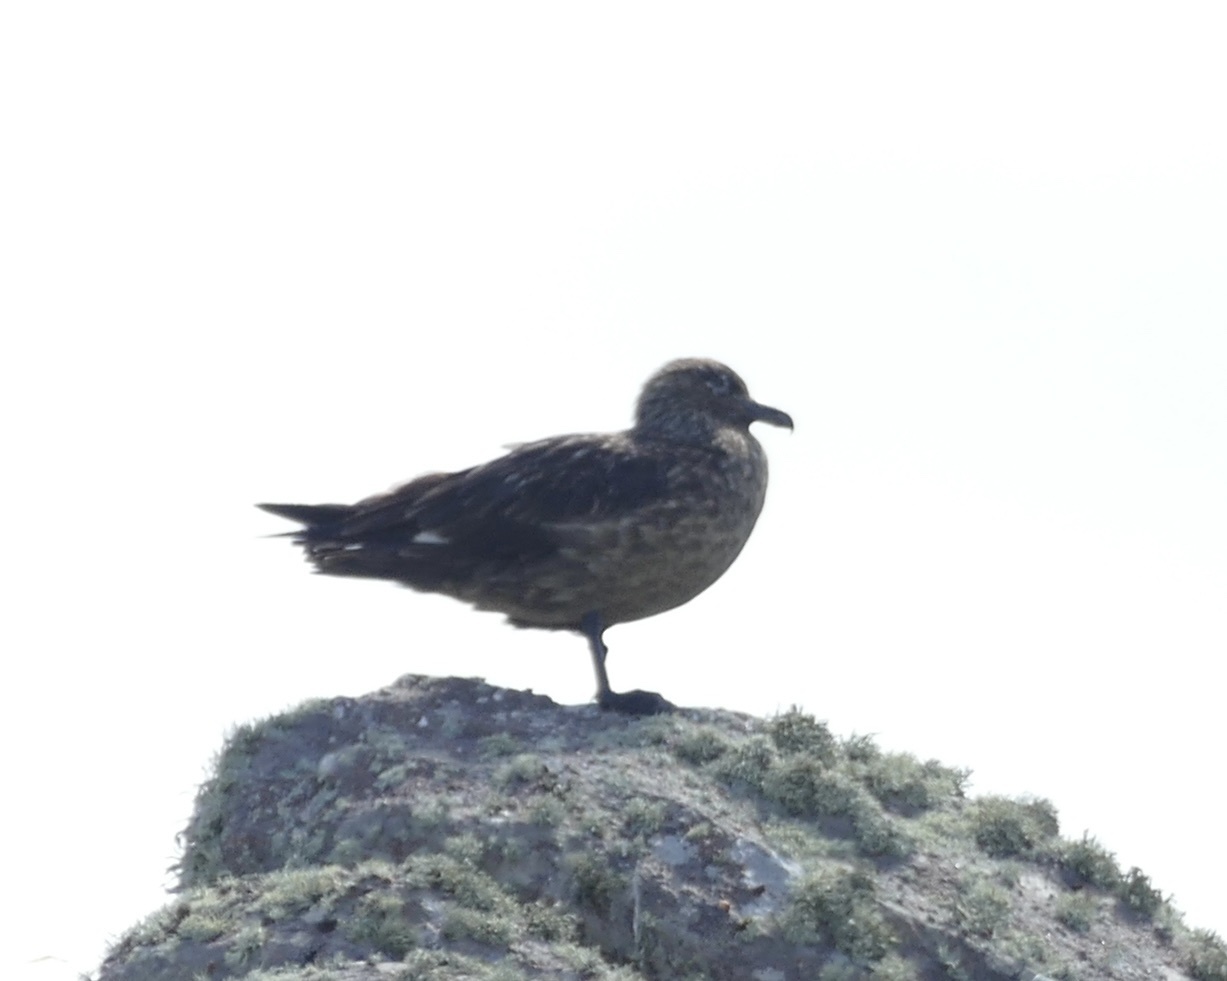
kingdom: Animalia
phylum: Chordata
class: Aves
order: Charadriiformes
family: Stercorariidae
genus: Stercorarius
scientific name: Stercorarius skua
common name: Great skua
